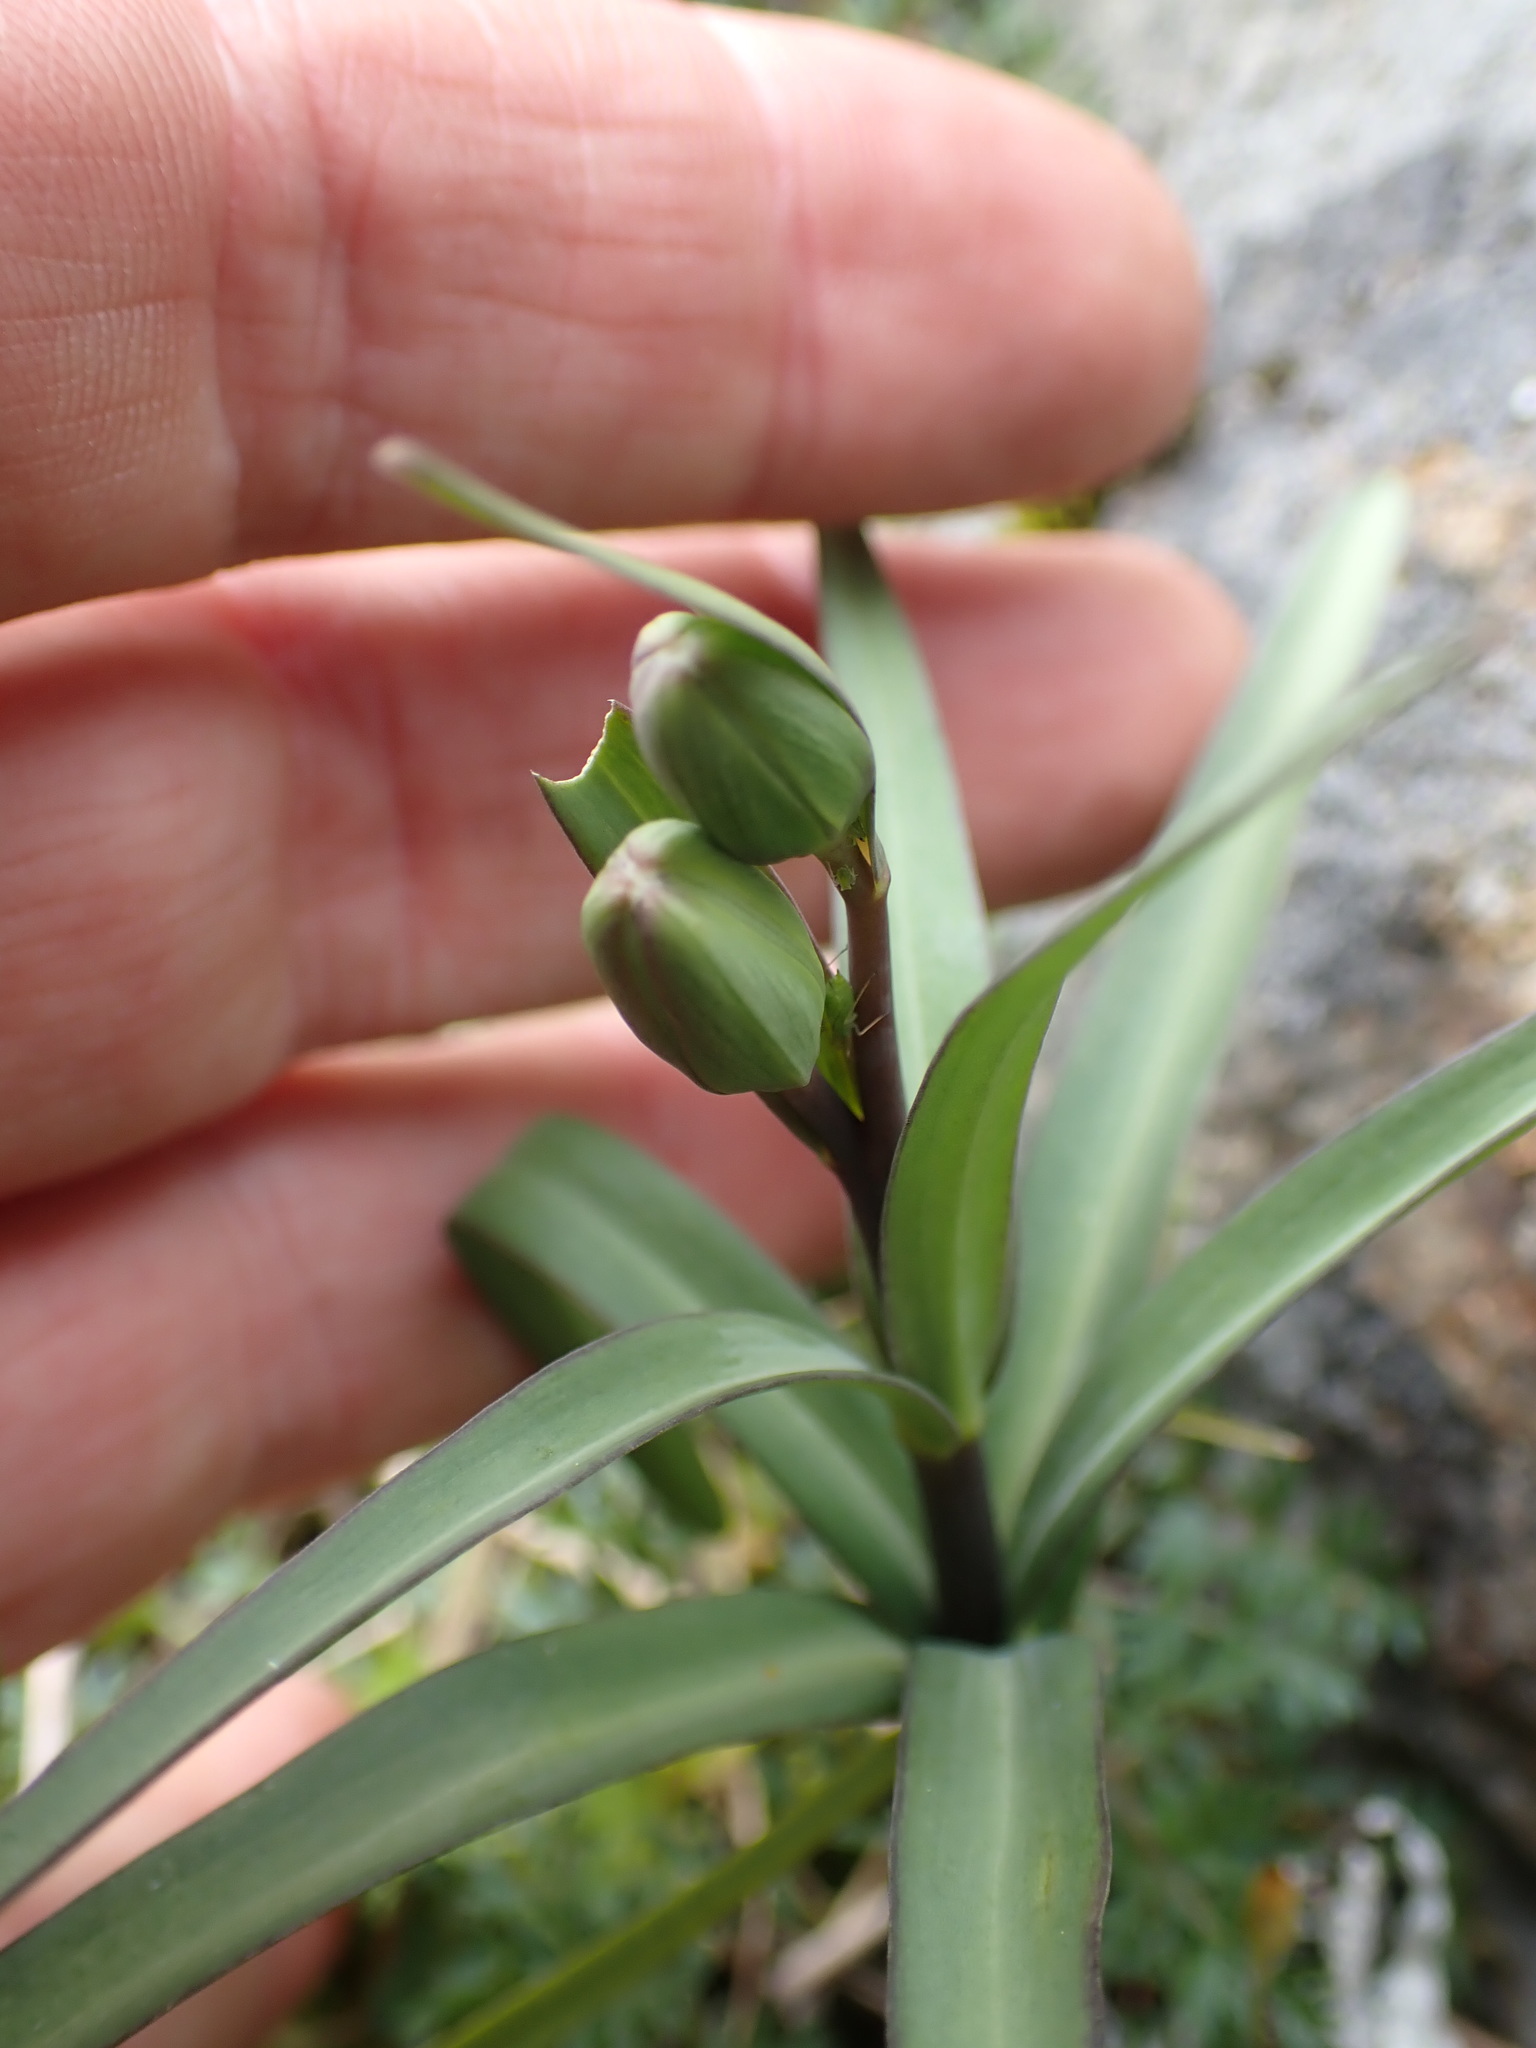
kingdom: Plantae
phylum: Tracheophyta
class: Liliopsida
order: Liliales
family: Liliaceae
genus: Fritillaria
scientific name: Fritillaria affinis
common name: Ojai fritillary
